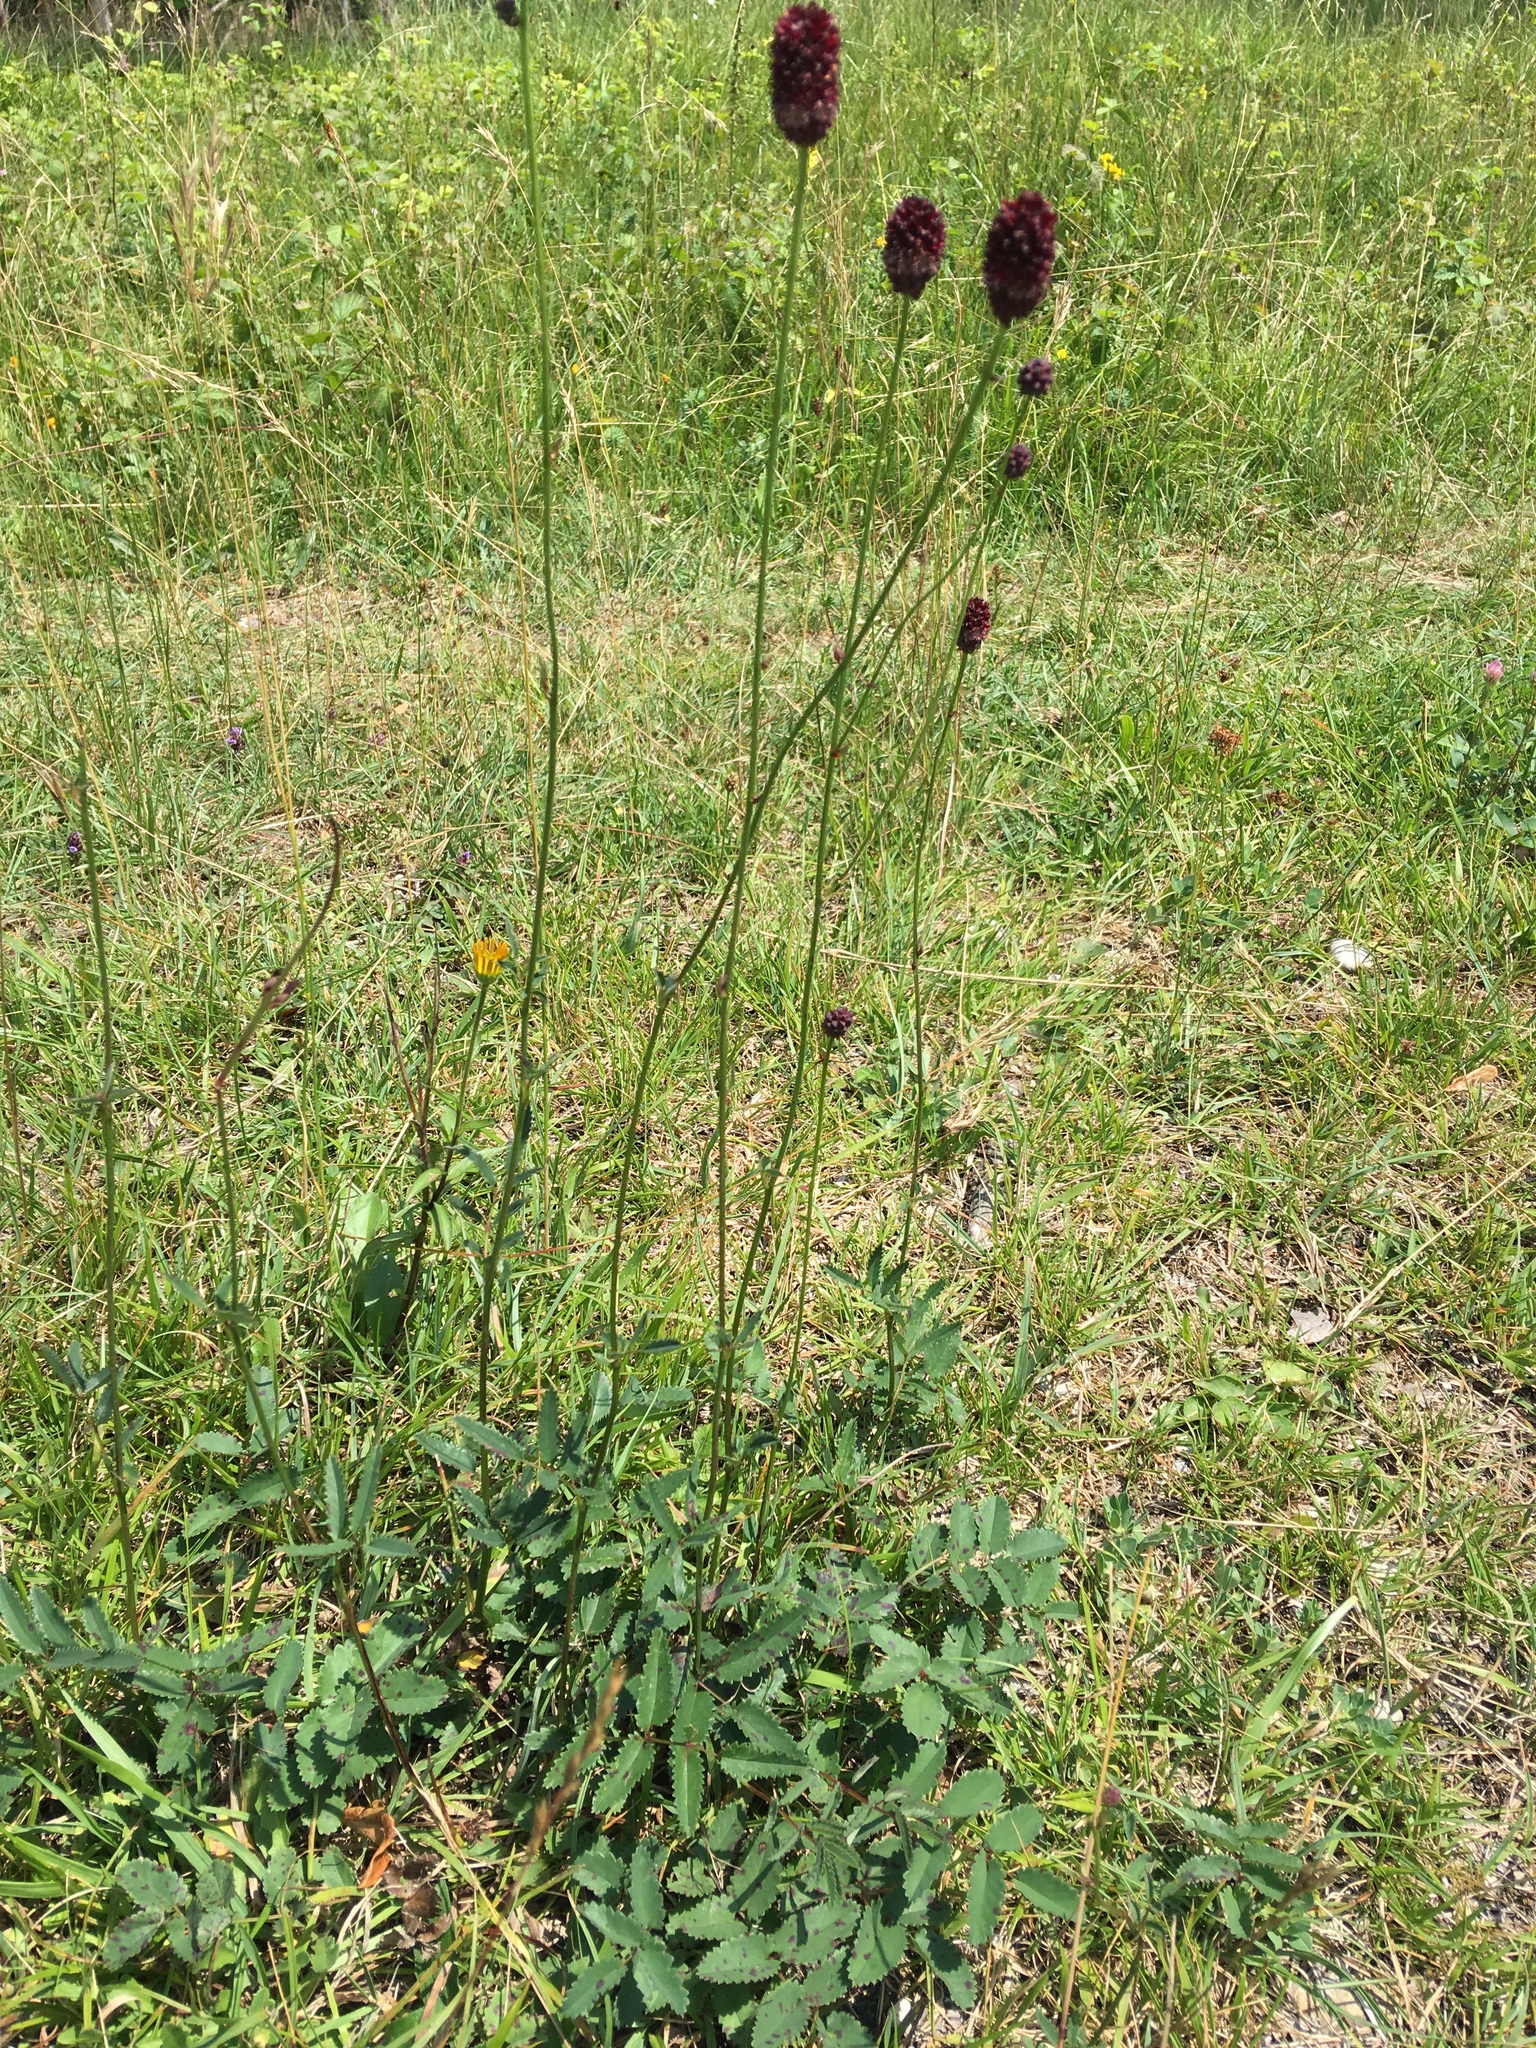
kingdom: Plantae
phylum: Tracheophyta
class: Magnoliopsida
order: Rosales
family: Rosaceae
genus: Sanguisorba
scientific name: Sanguisorba officinalis
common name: Great burnet
